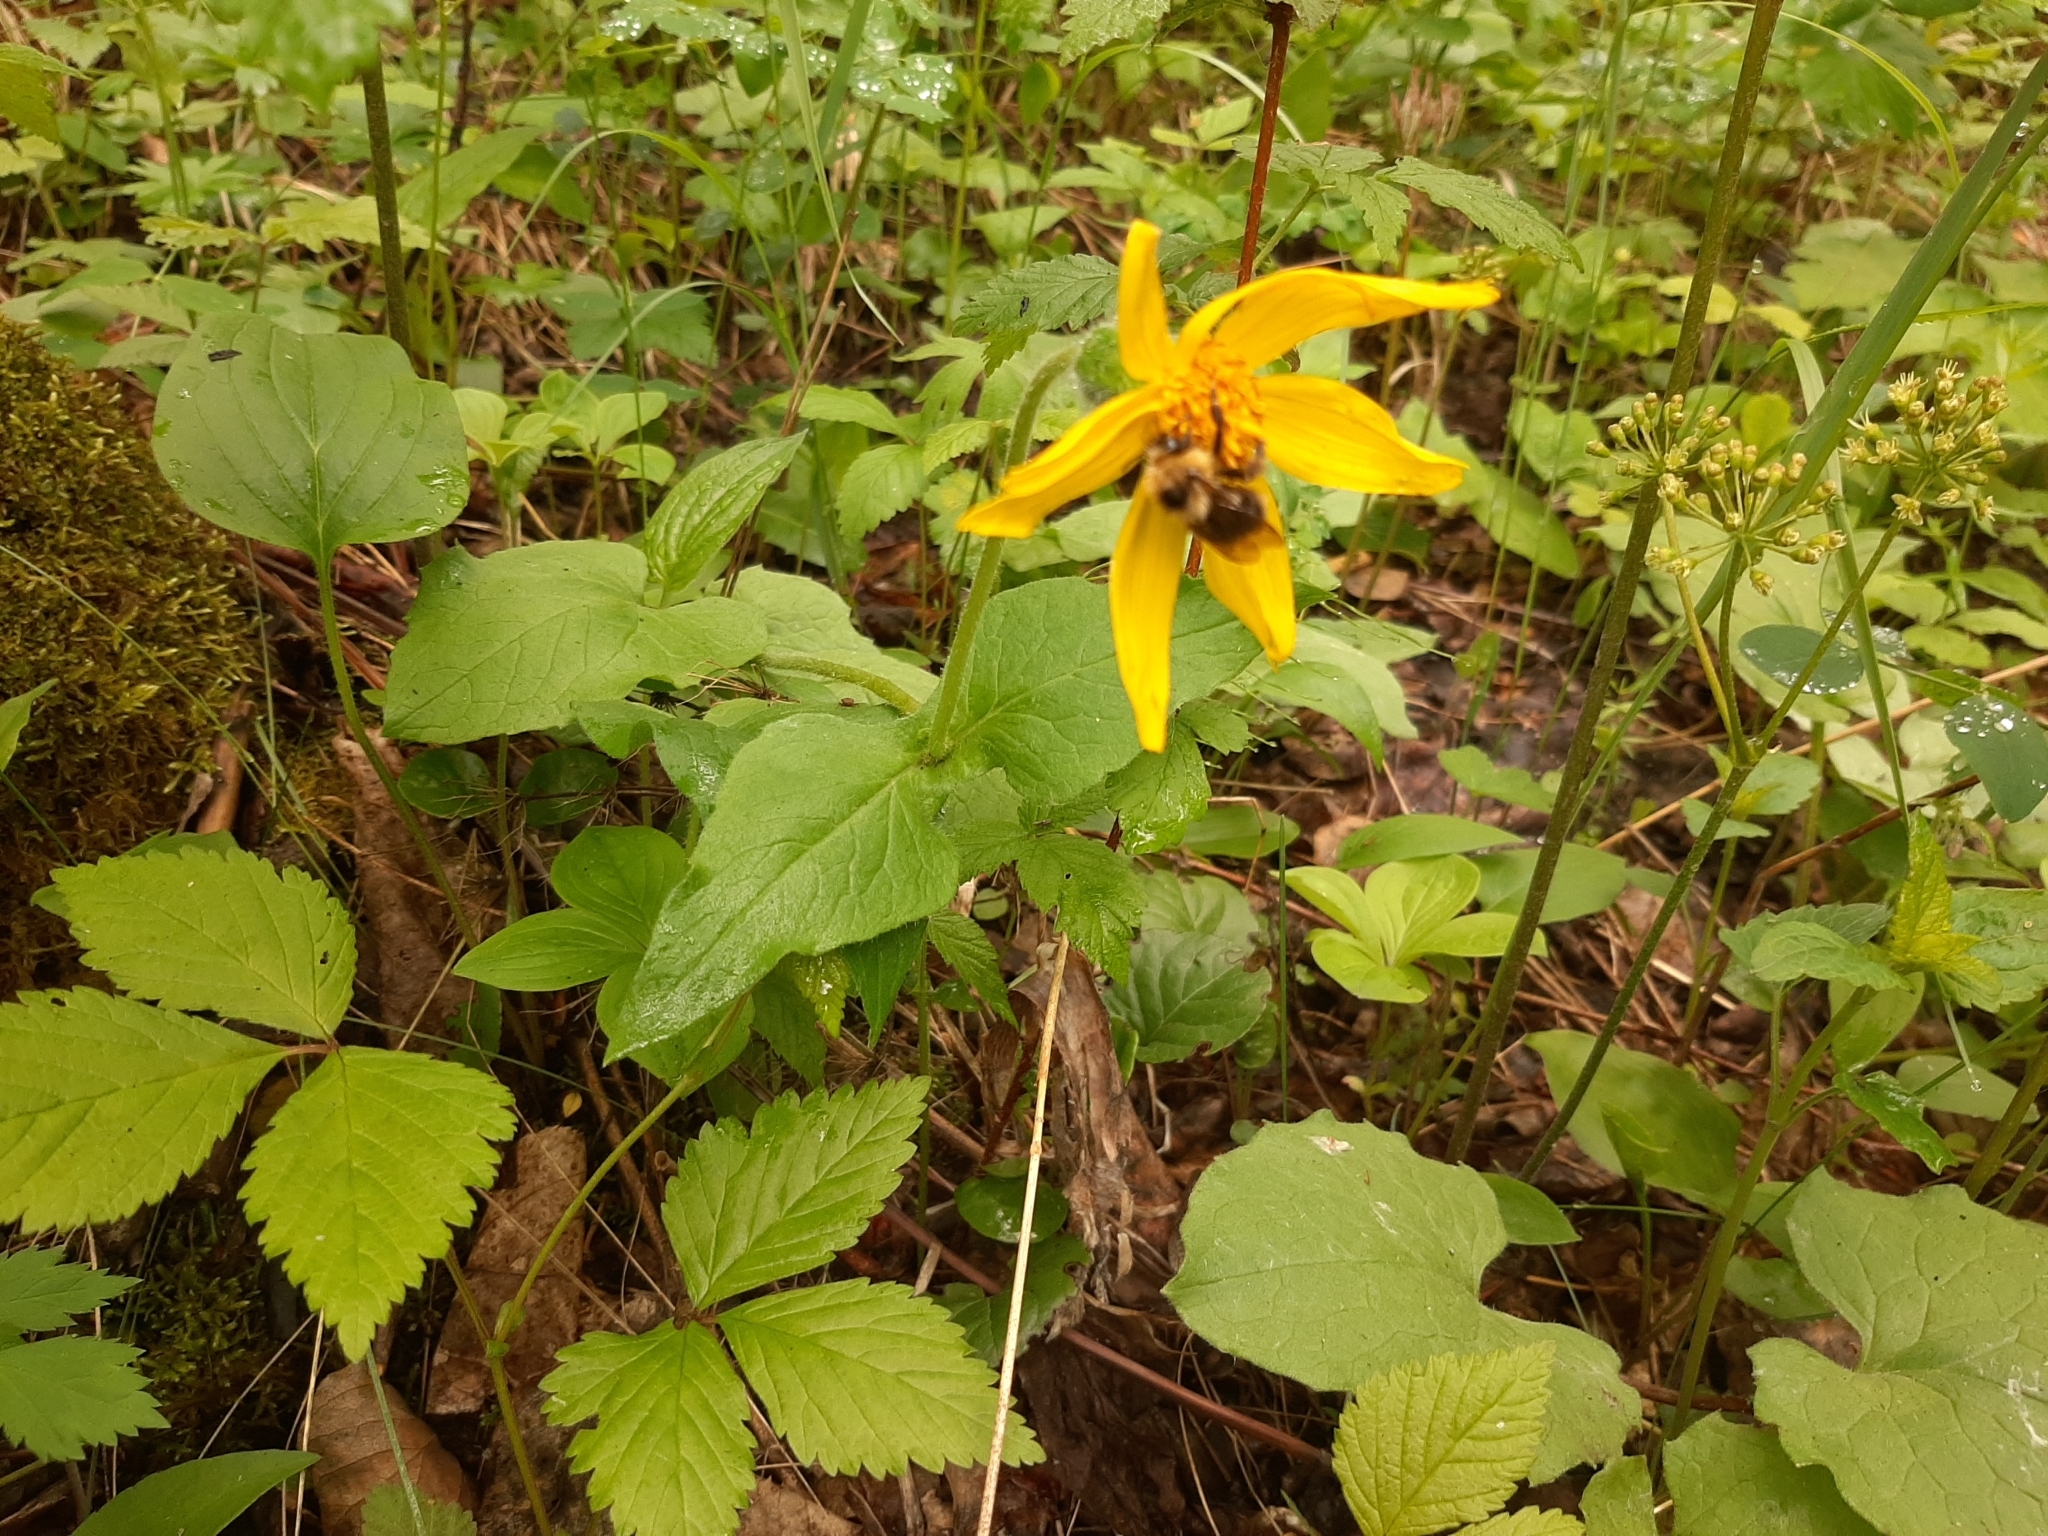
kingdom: Plantae
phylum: Tracheophyta
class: Magnoliopsida
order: Asterales
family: Asteraceae
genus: Arnica
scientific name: Arnica cordifolia
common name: Heart-leaf arnica
